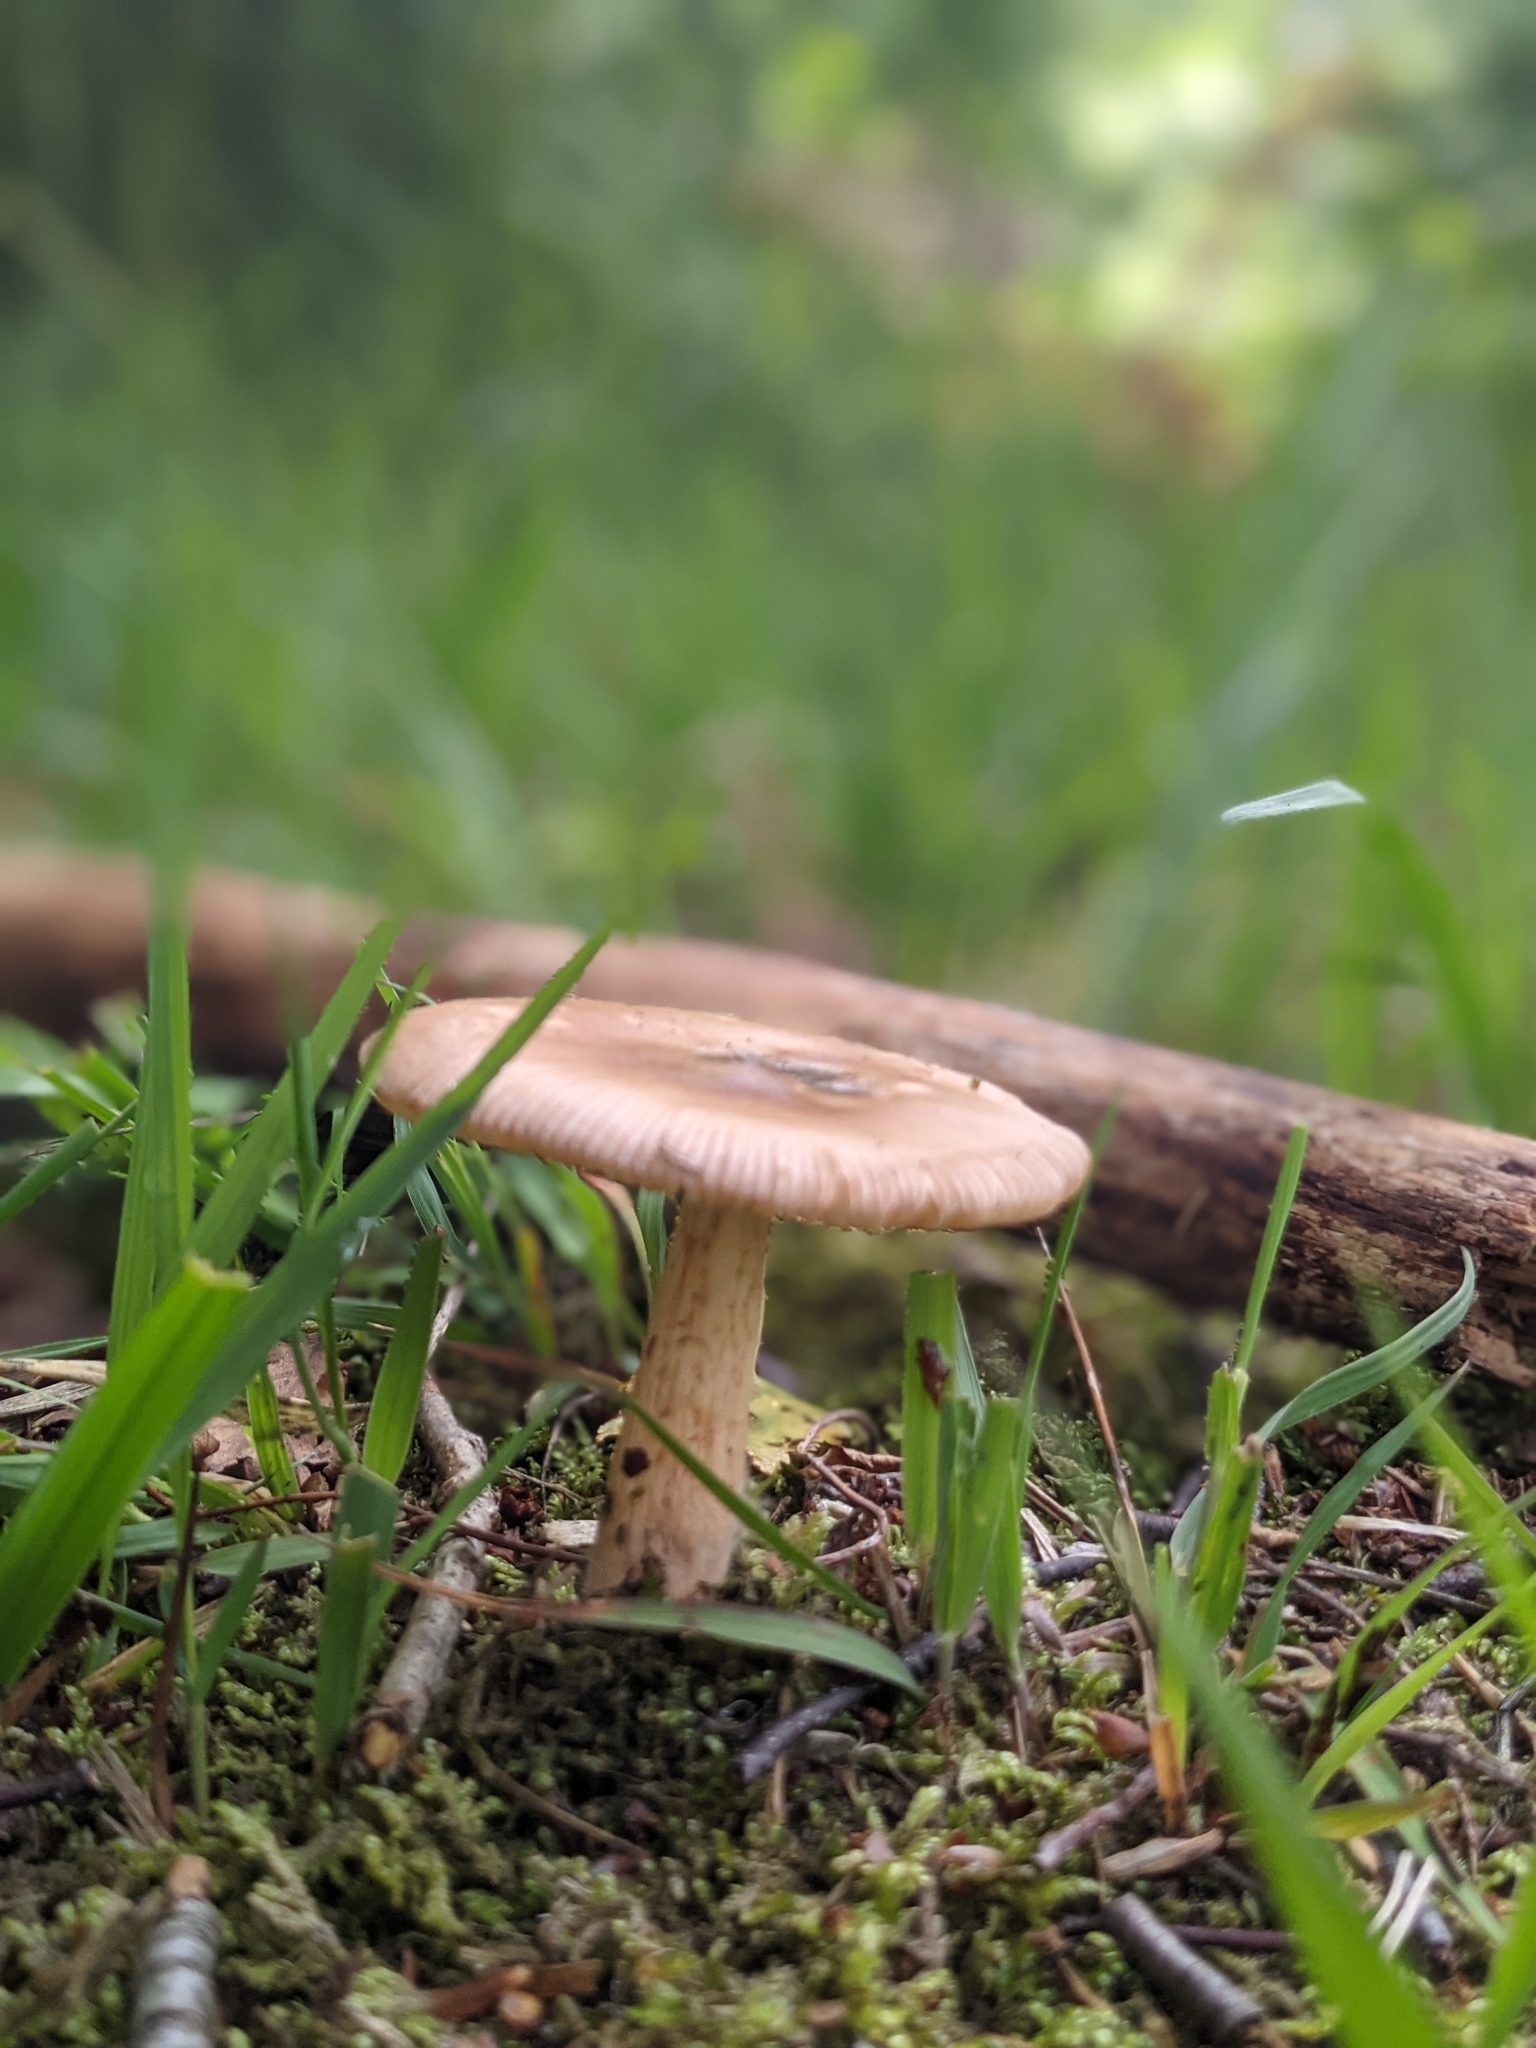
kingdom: Fungi
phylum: Basidiomycota
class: Agaricomycetes
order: Agaricales
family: Amanitaceae
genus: Amanita
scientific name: Amanita fulva
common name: Tawny grisette
